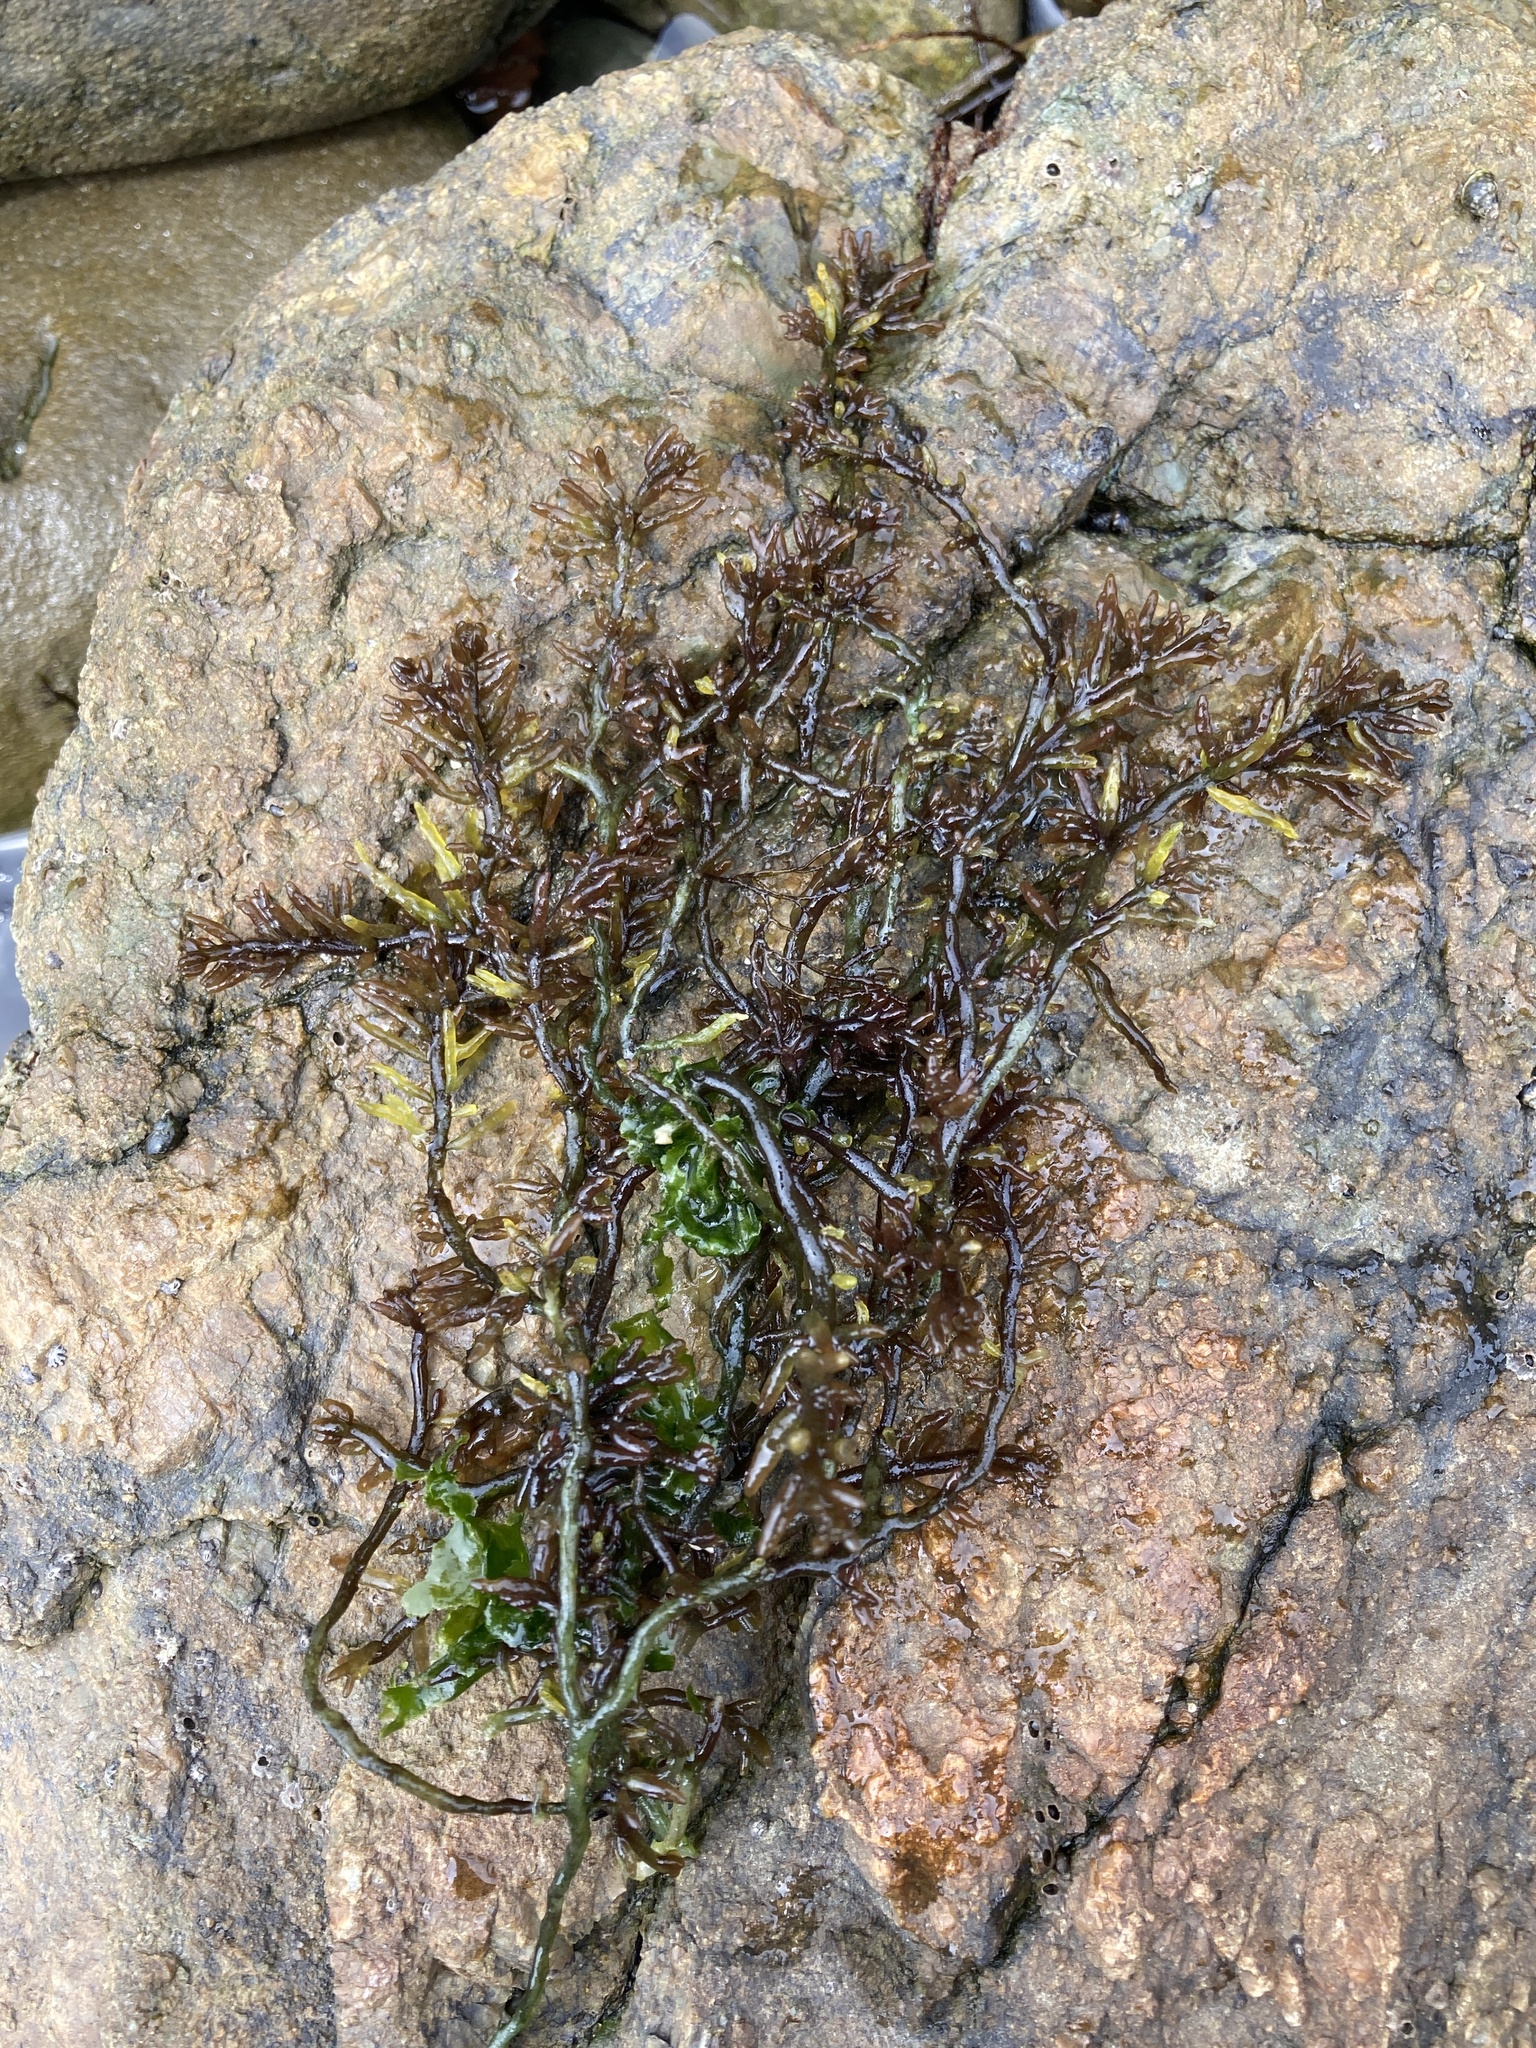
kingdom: Plantae
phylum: Rhodophyta
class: Florideophyceae
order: Rhodymeniales
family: Champiaceae
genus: Neogastroclonium
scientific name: Neogastroclonium subarticulatum
